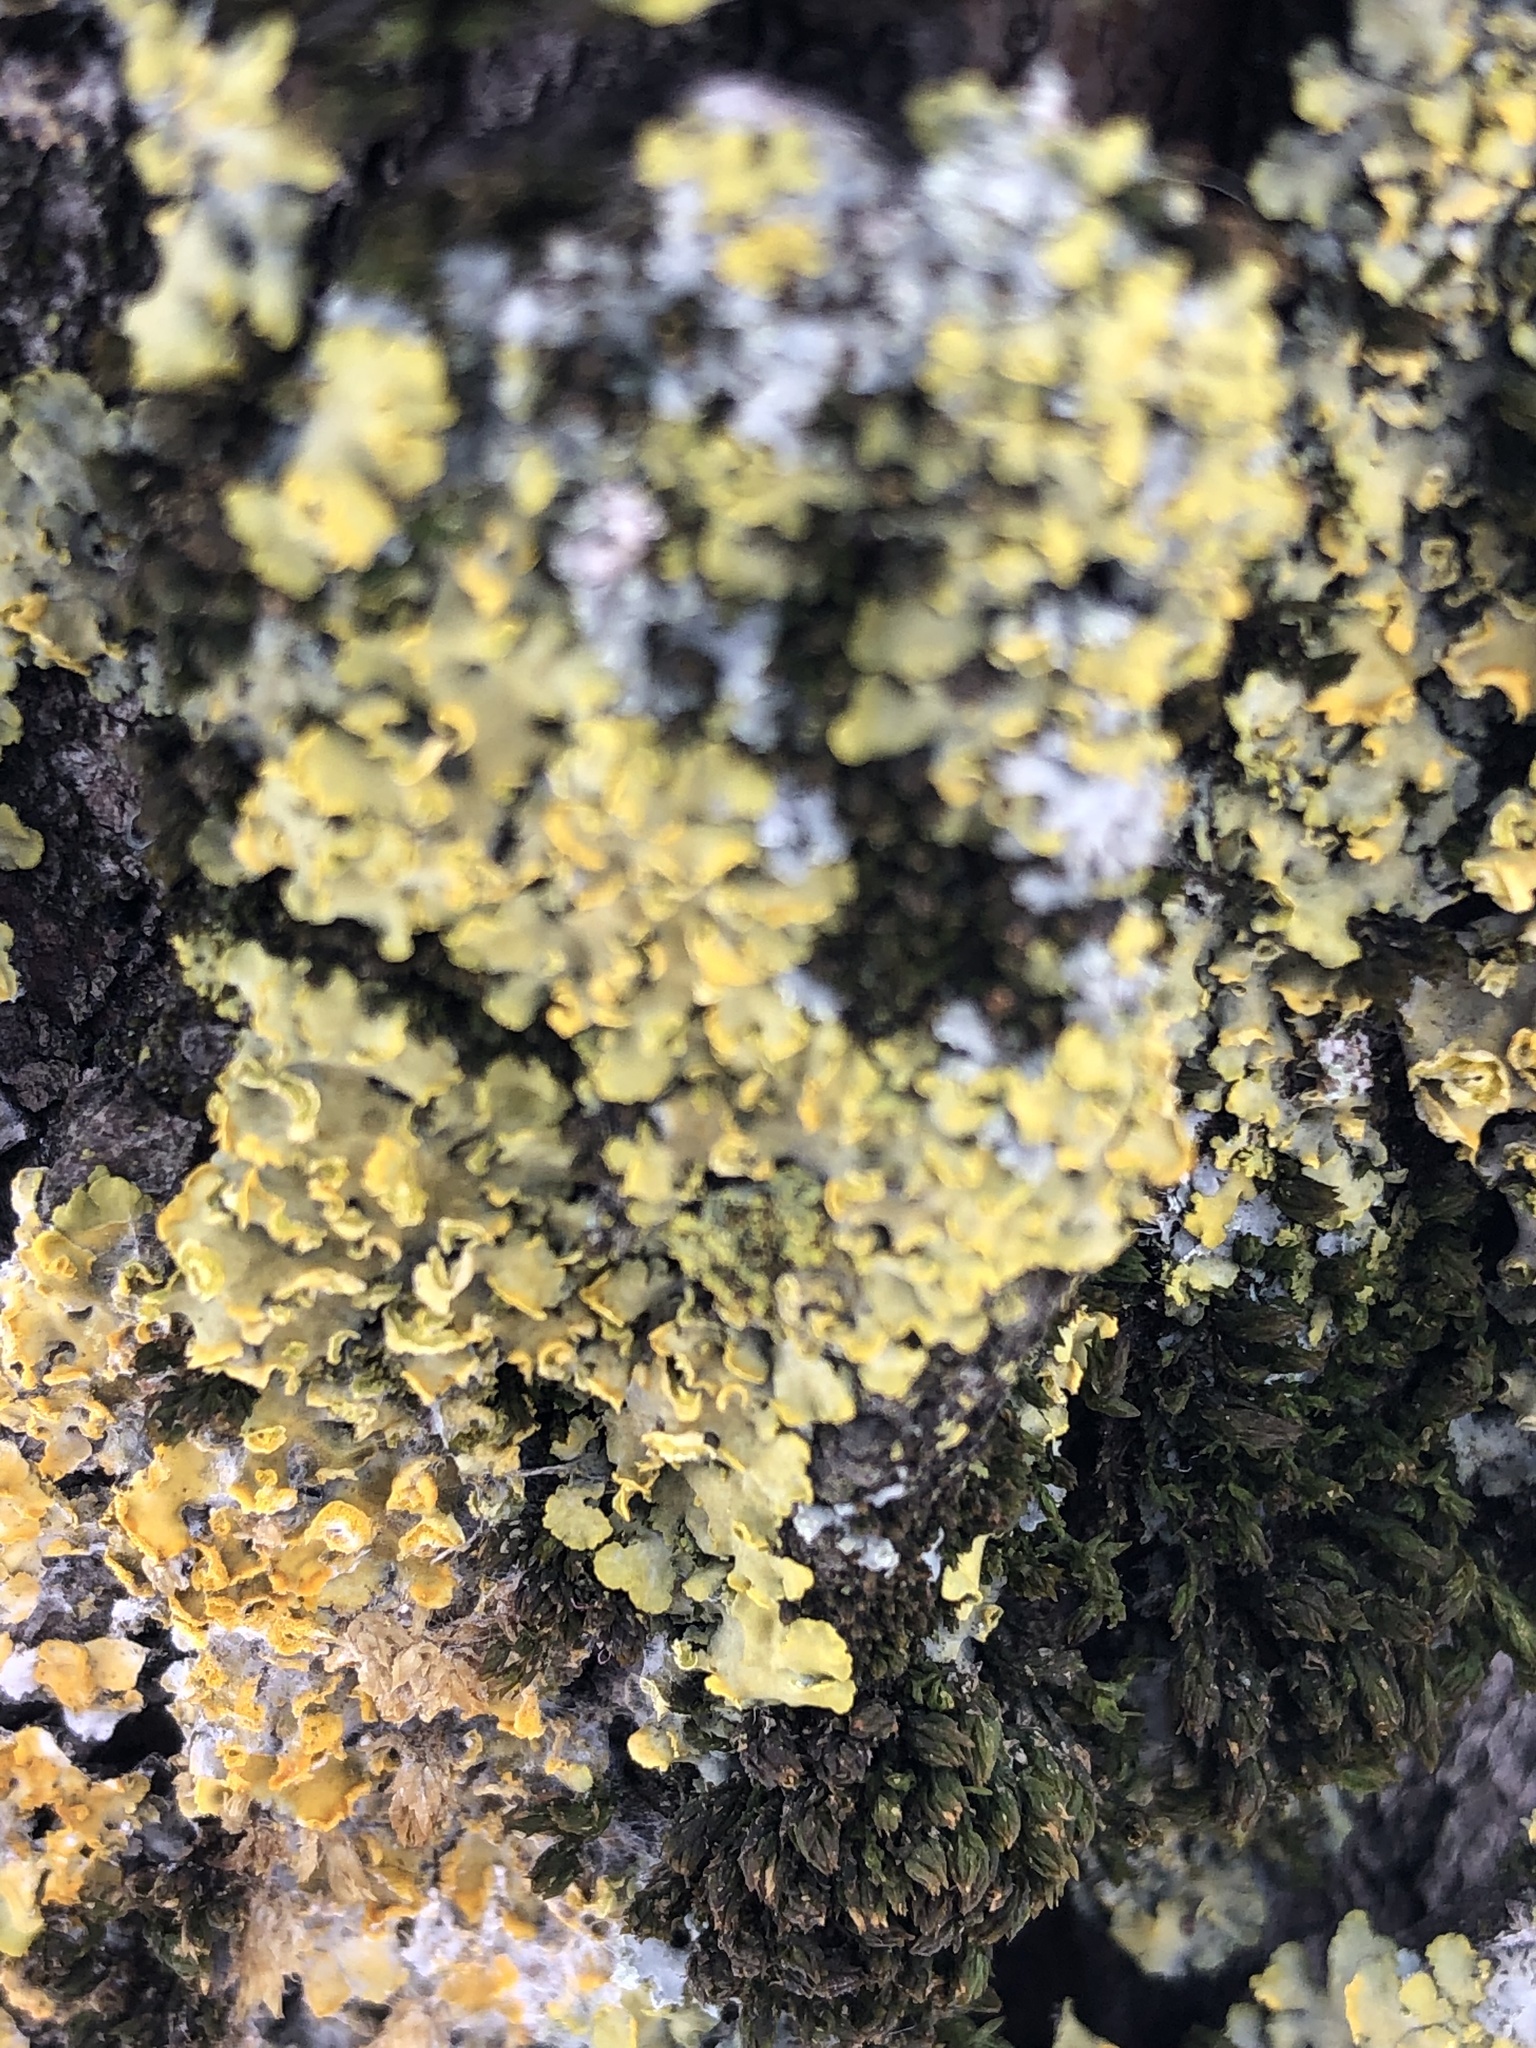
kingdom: Fungi
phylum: Ascomycota
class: Lecanoromycetes
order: Teloschistales
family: Teloschistaceae
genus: Oxneria
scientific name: Oxneria fallax
